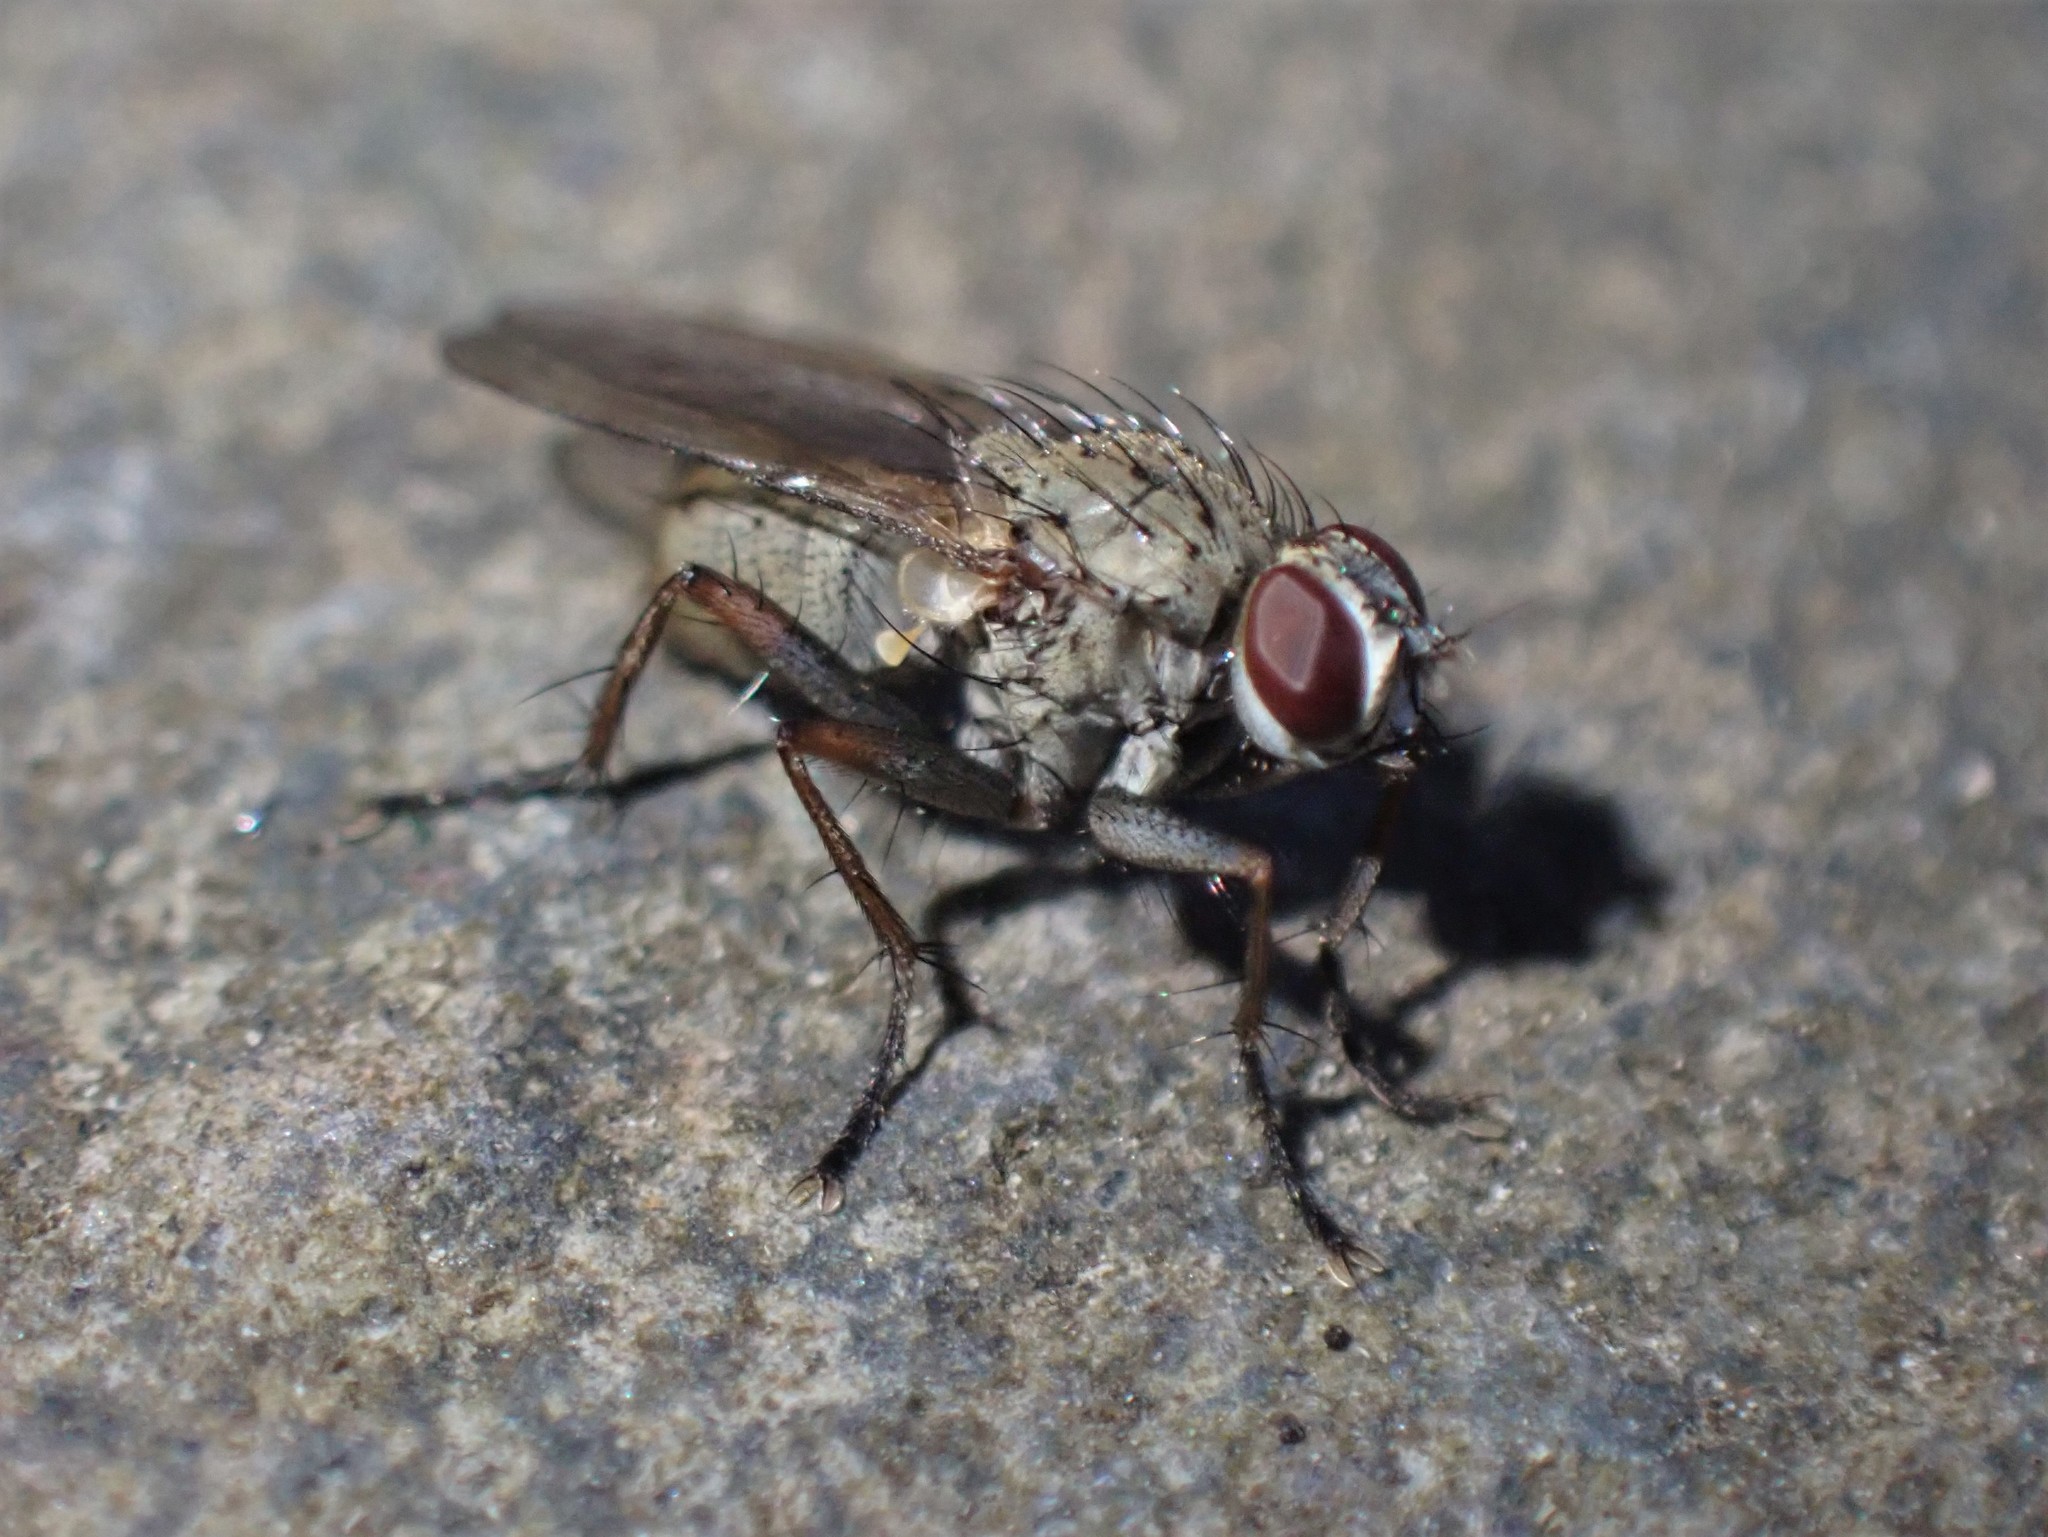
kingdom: Animalia
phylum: Arthropoda
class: Insecta
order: Diptera
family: Muscidae
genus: Coenosia
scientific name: Coenosia tigrina
